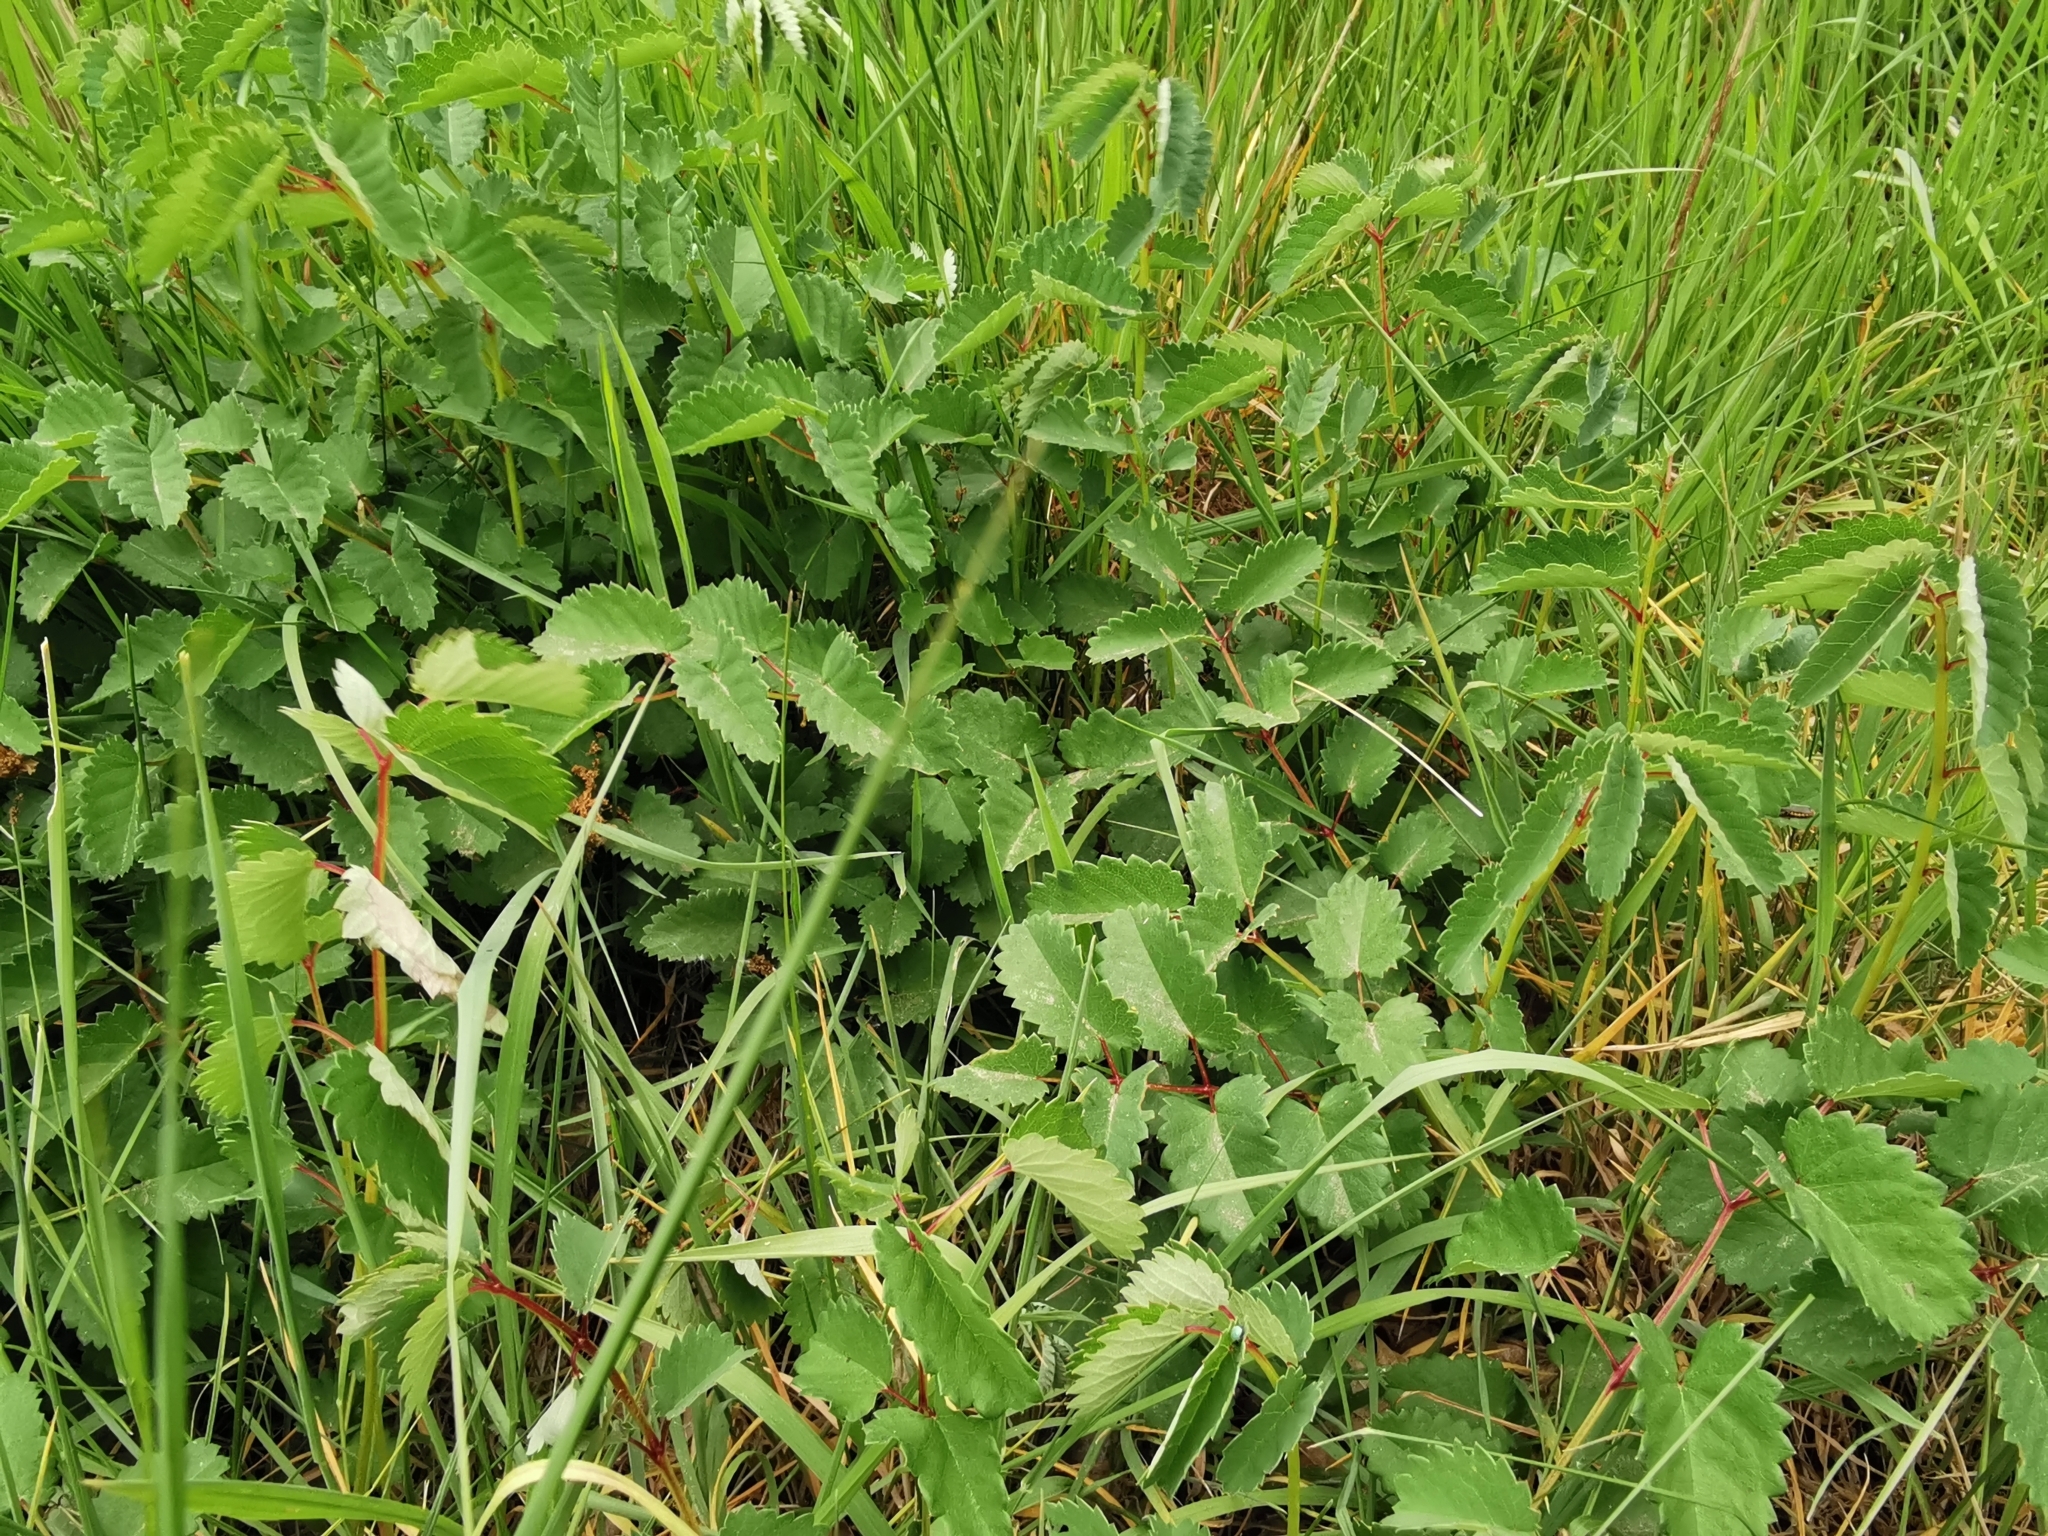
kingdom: Plantae
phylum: Tracheophyta
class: Magnoliopsida
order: Rosales
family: Rosaceae
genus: Sanguisorba
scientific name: Sanguisorba officinalis
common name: Great burnet
